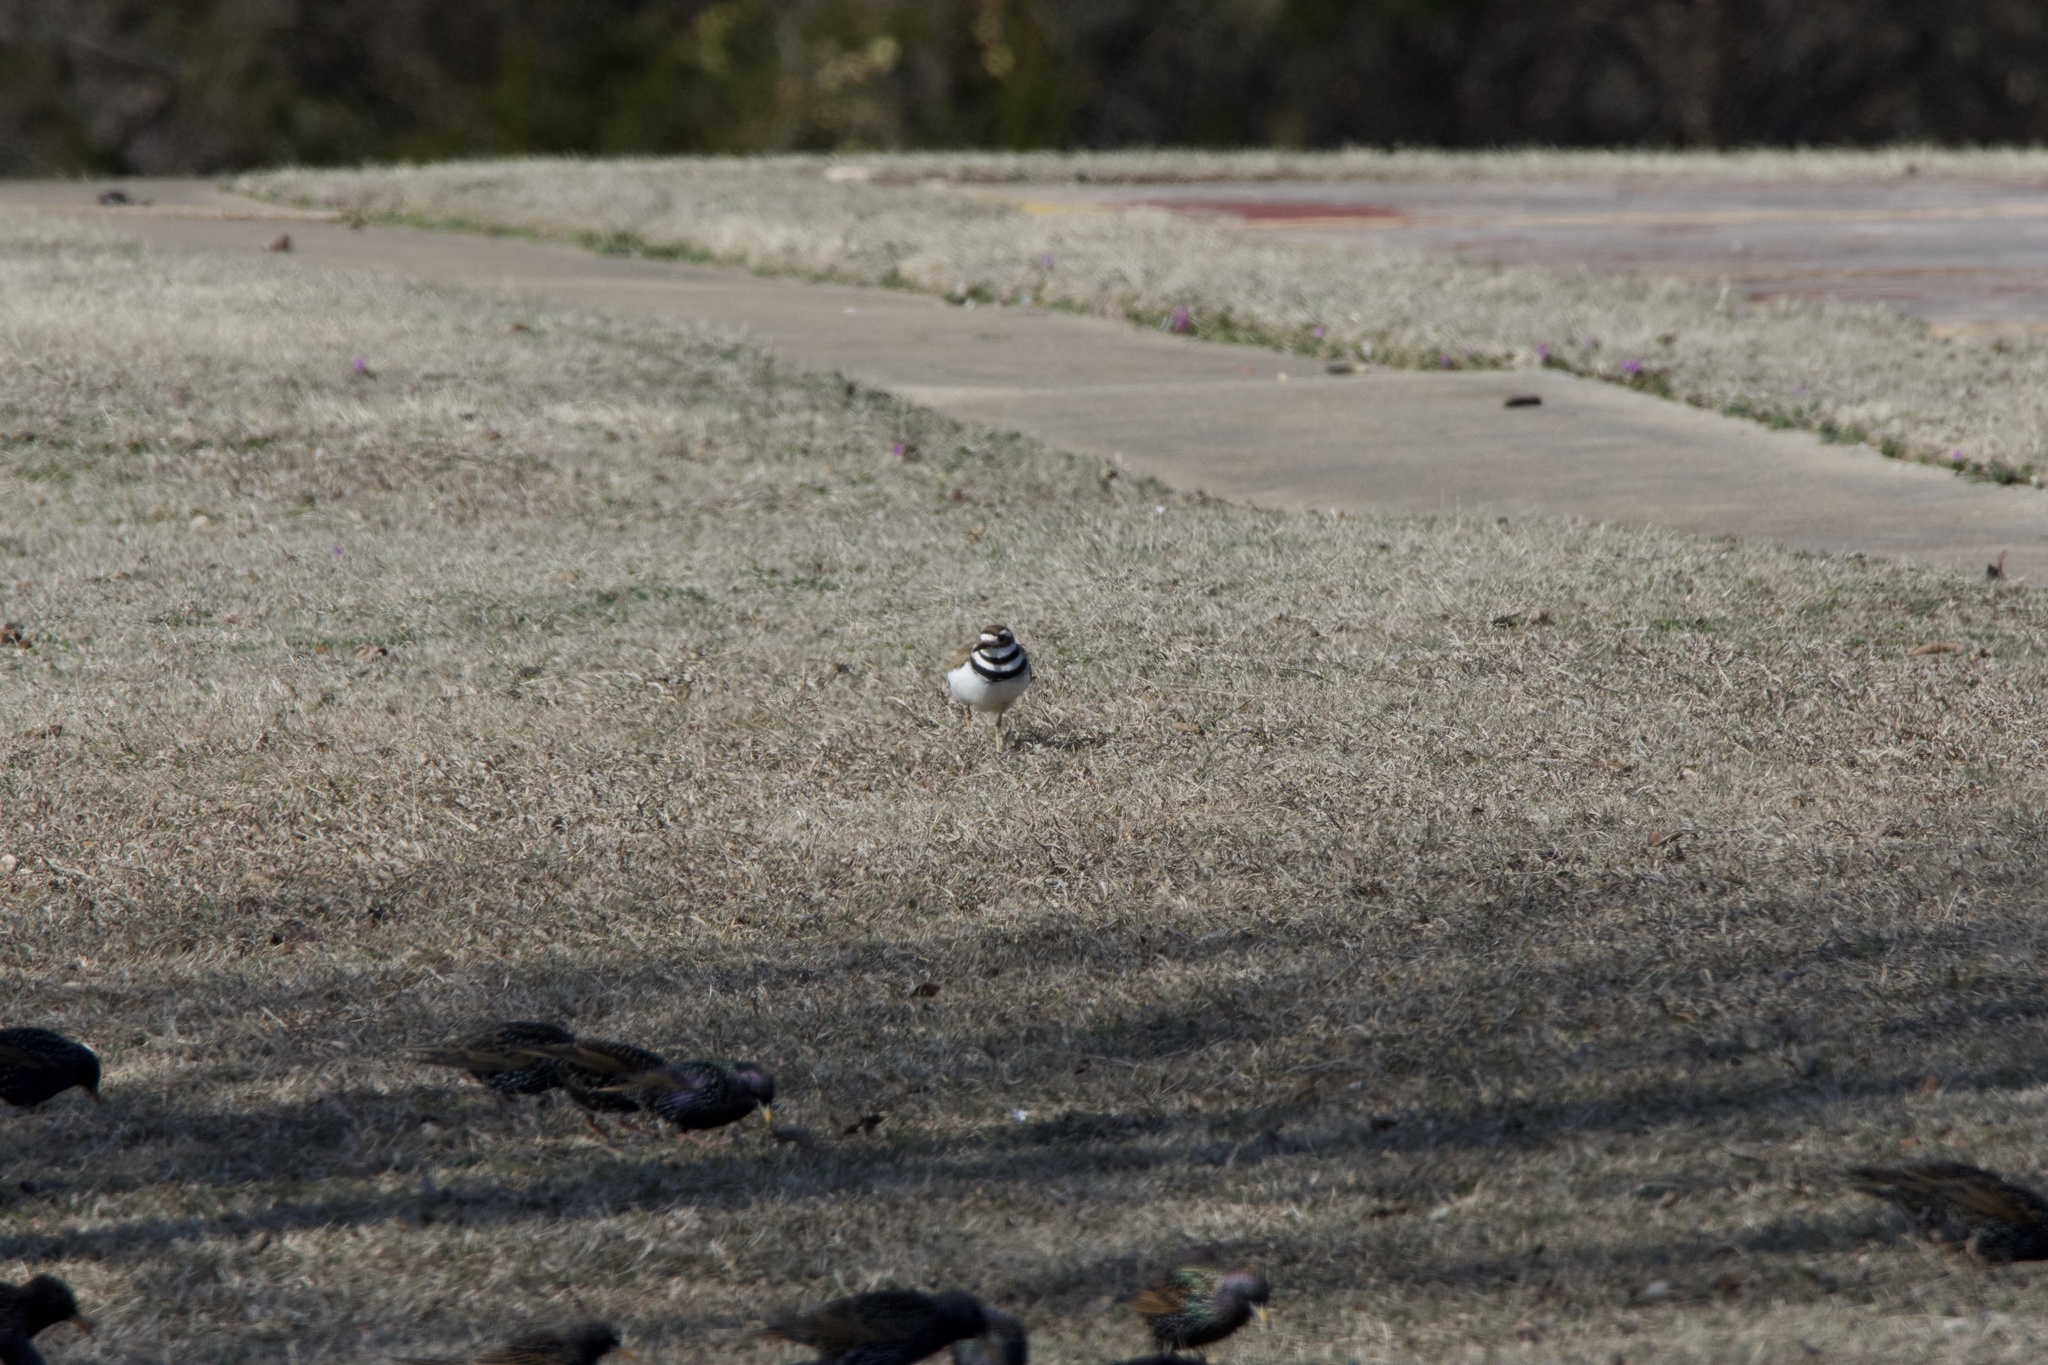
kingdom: Animalia
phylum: Chordata
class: Aves
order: Charadriiformes
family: Charadriidae
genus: Charadrius
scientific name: Charadrius vociferus
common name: Killdeer
